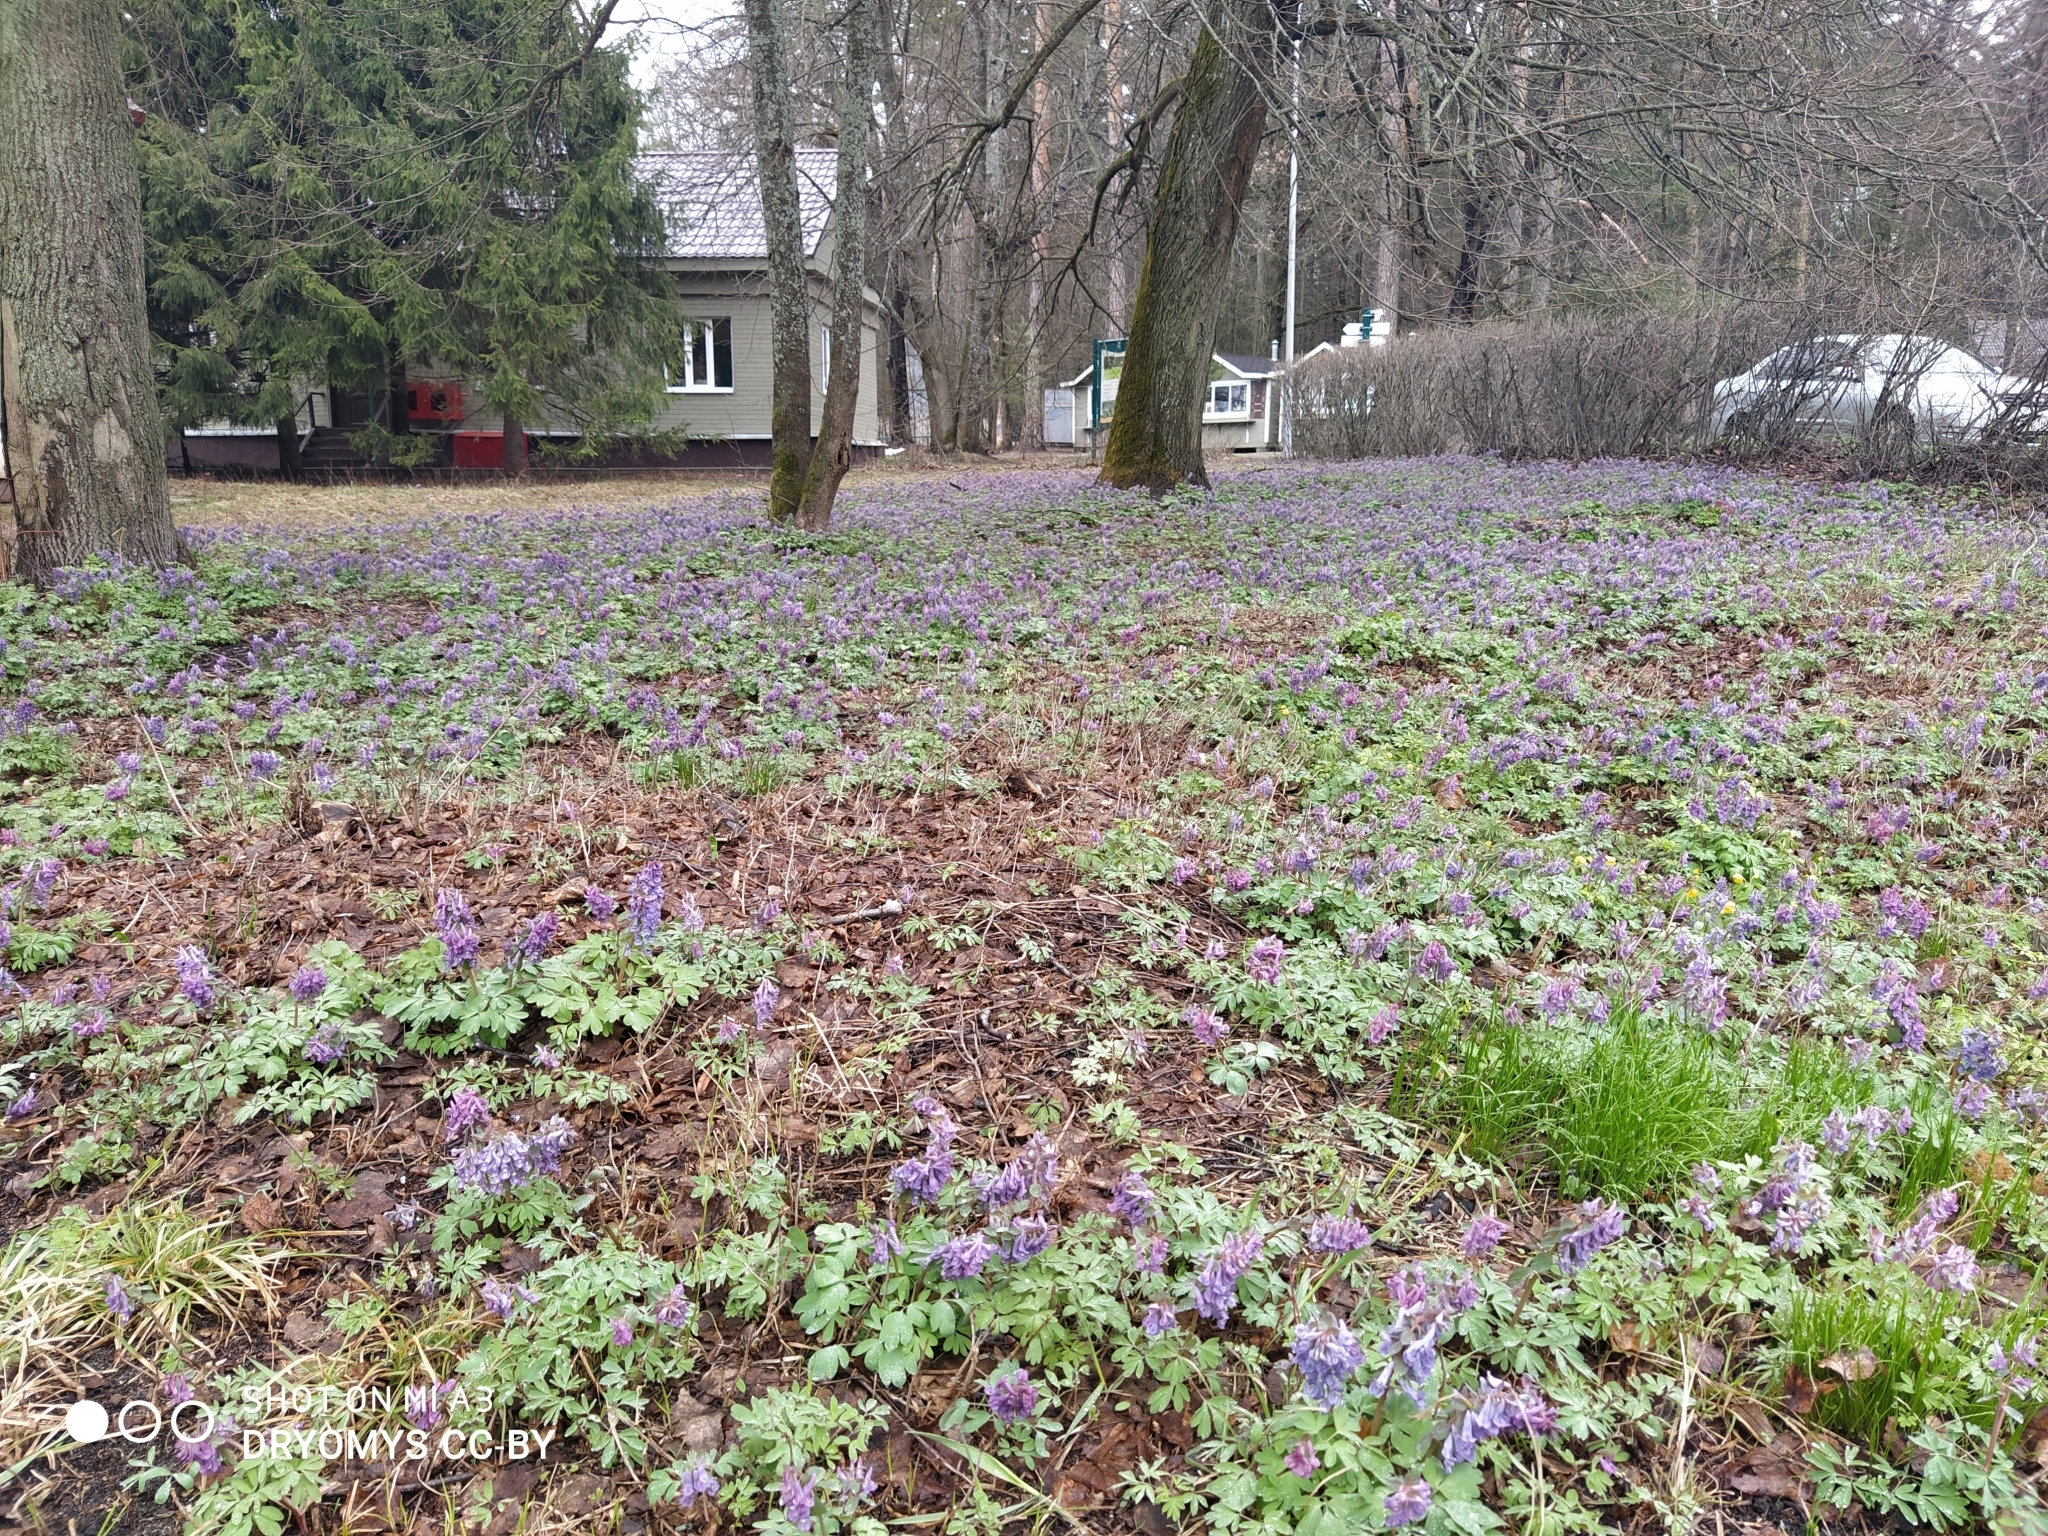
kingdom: Plantae
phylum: Tracheophyta
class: Magnoliopsida
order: Ranunculales
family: Papaveraceae
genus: Corydalis
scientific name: Corydalis solida
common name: Bird-in-a-bush
